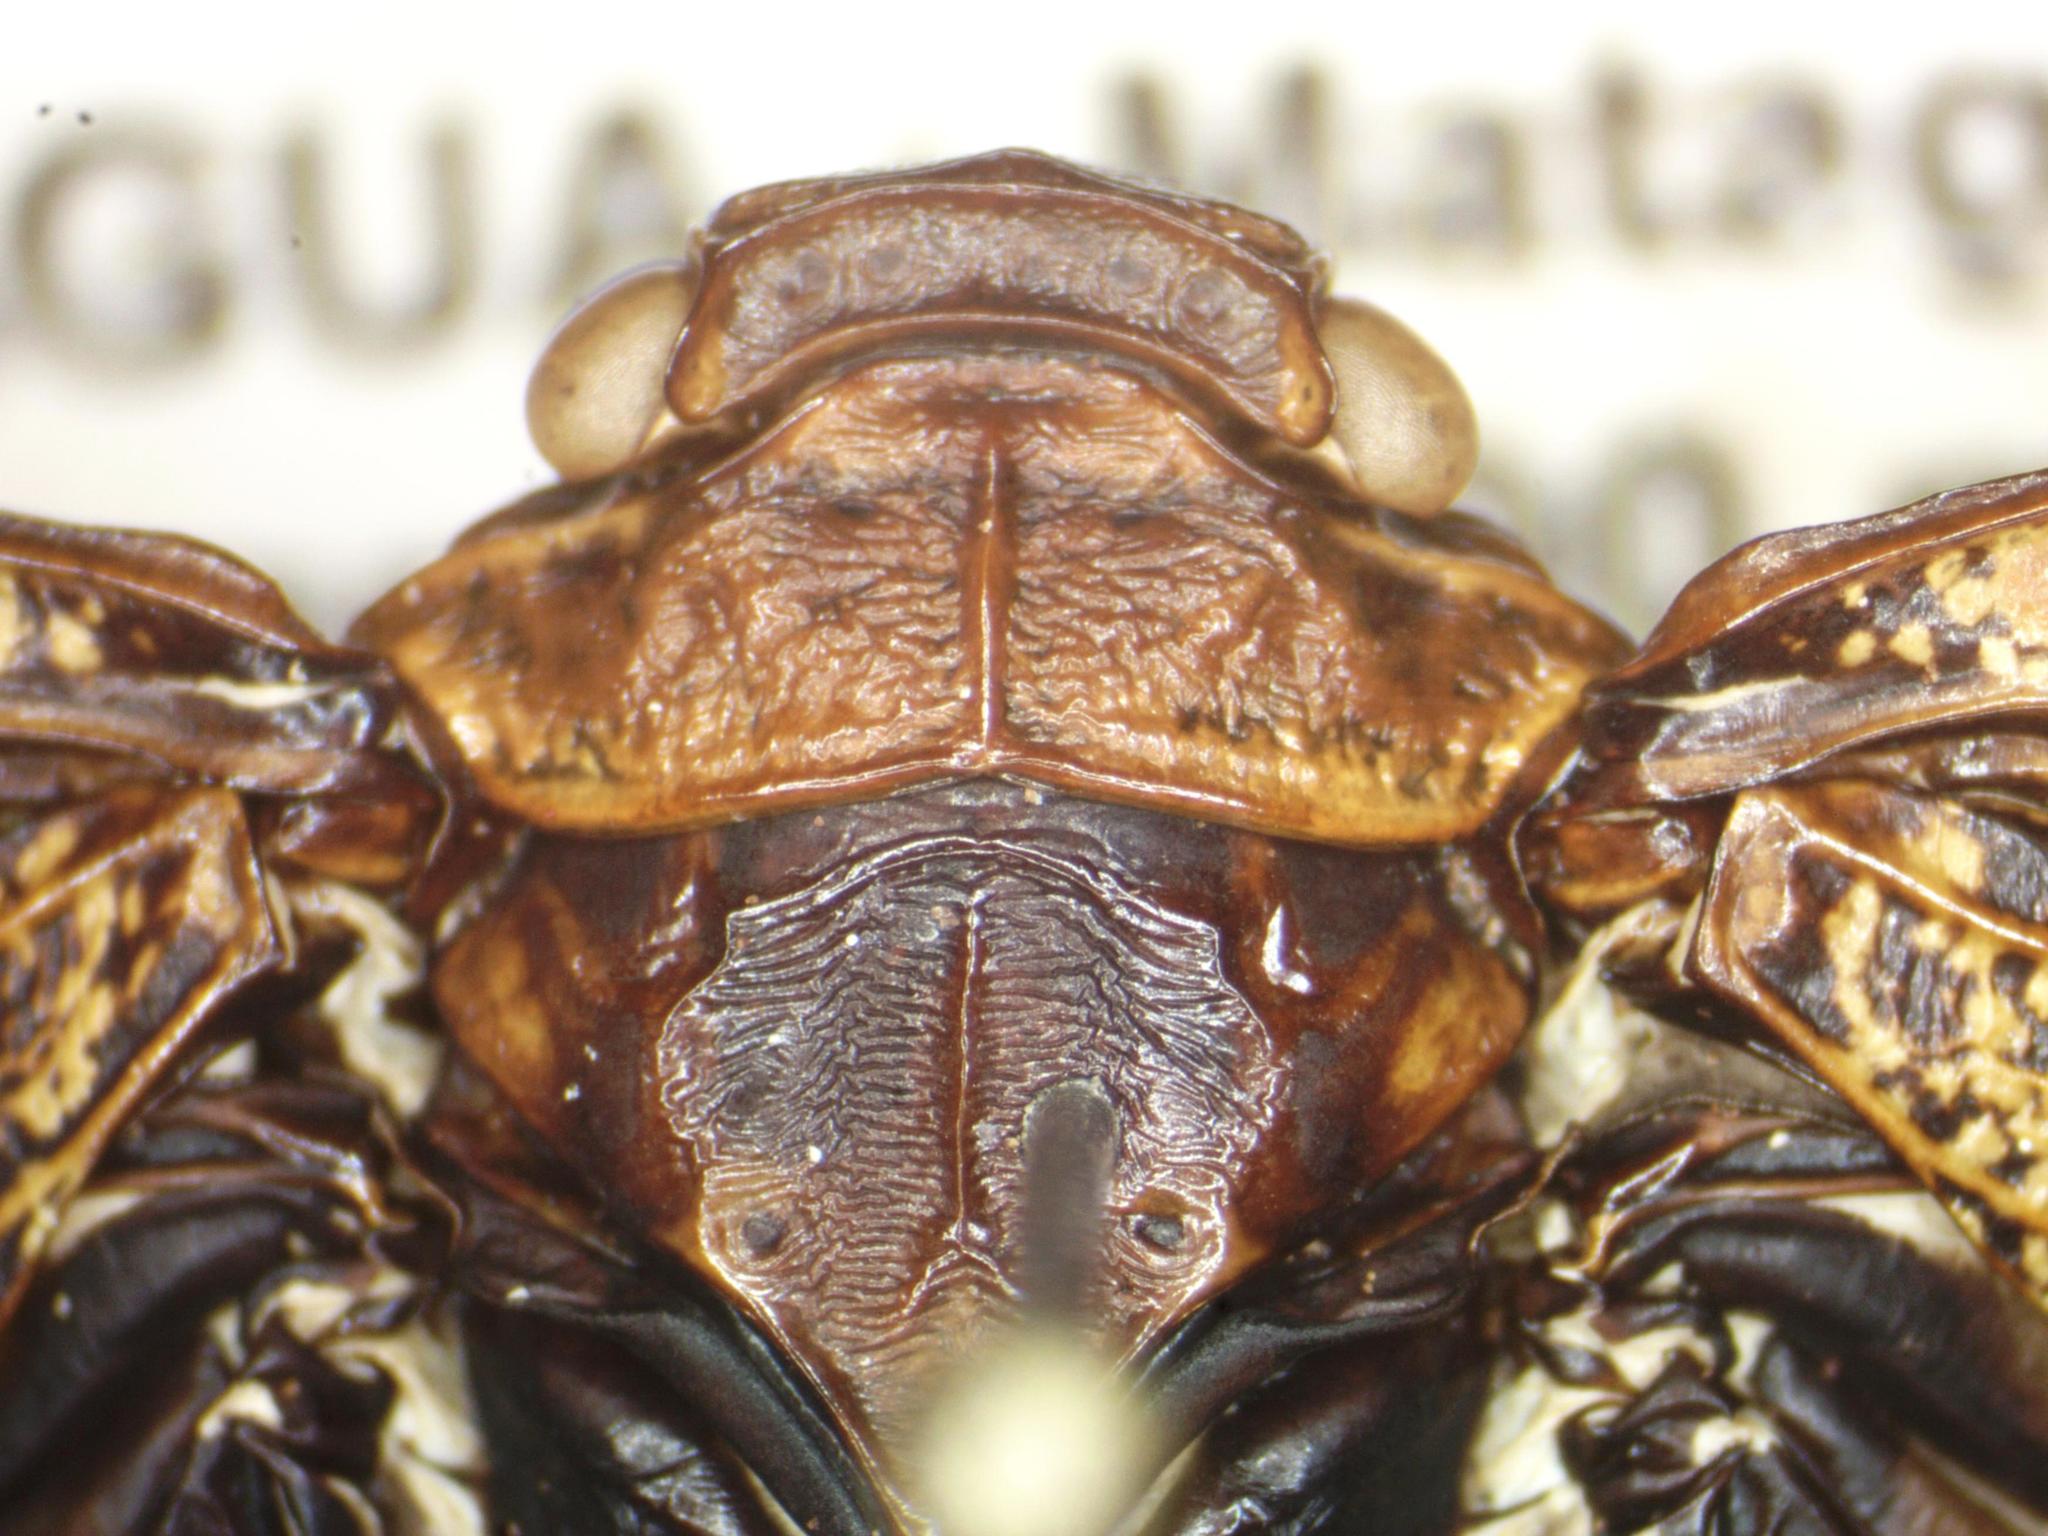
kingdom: Animalia
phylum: Arthropoda
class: Insecta
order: Hemiptera
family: Fulgoridae
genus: Zeunasa
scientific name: Zeunasa astralis
